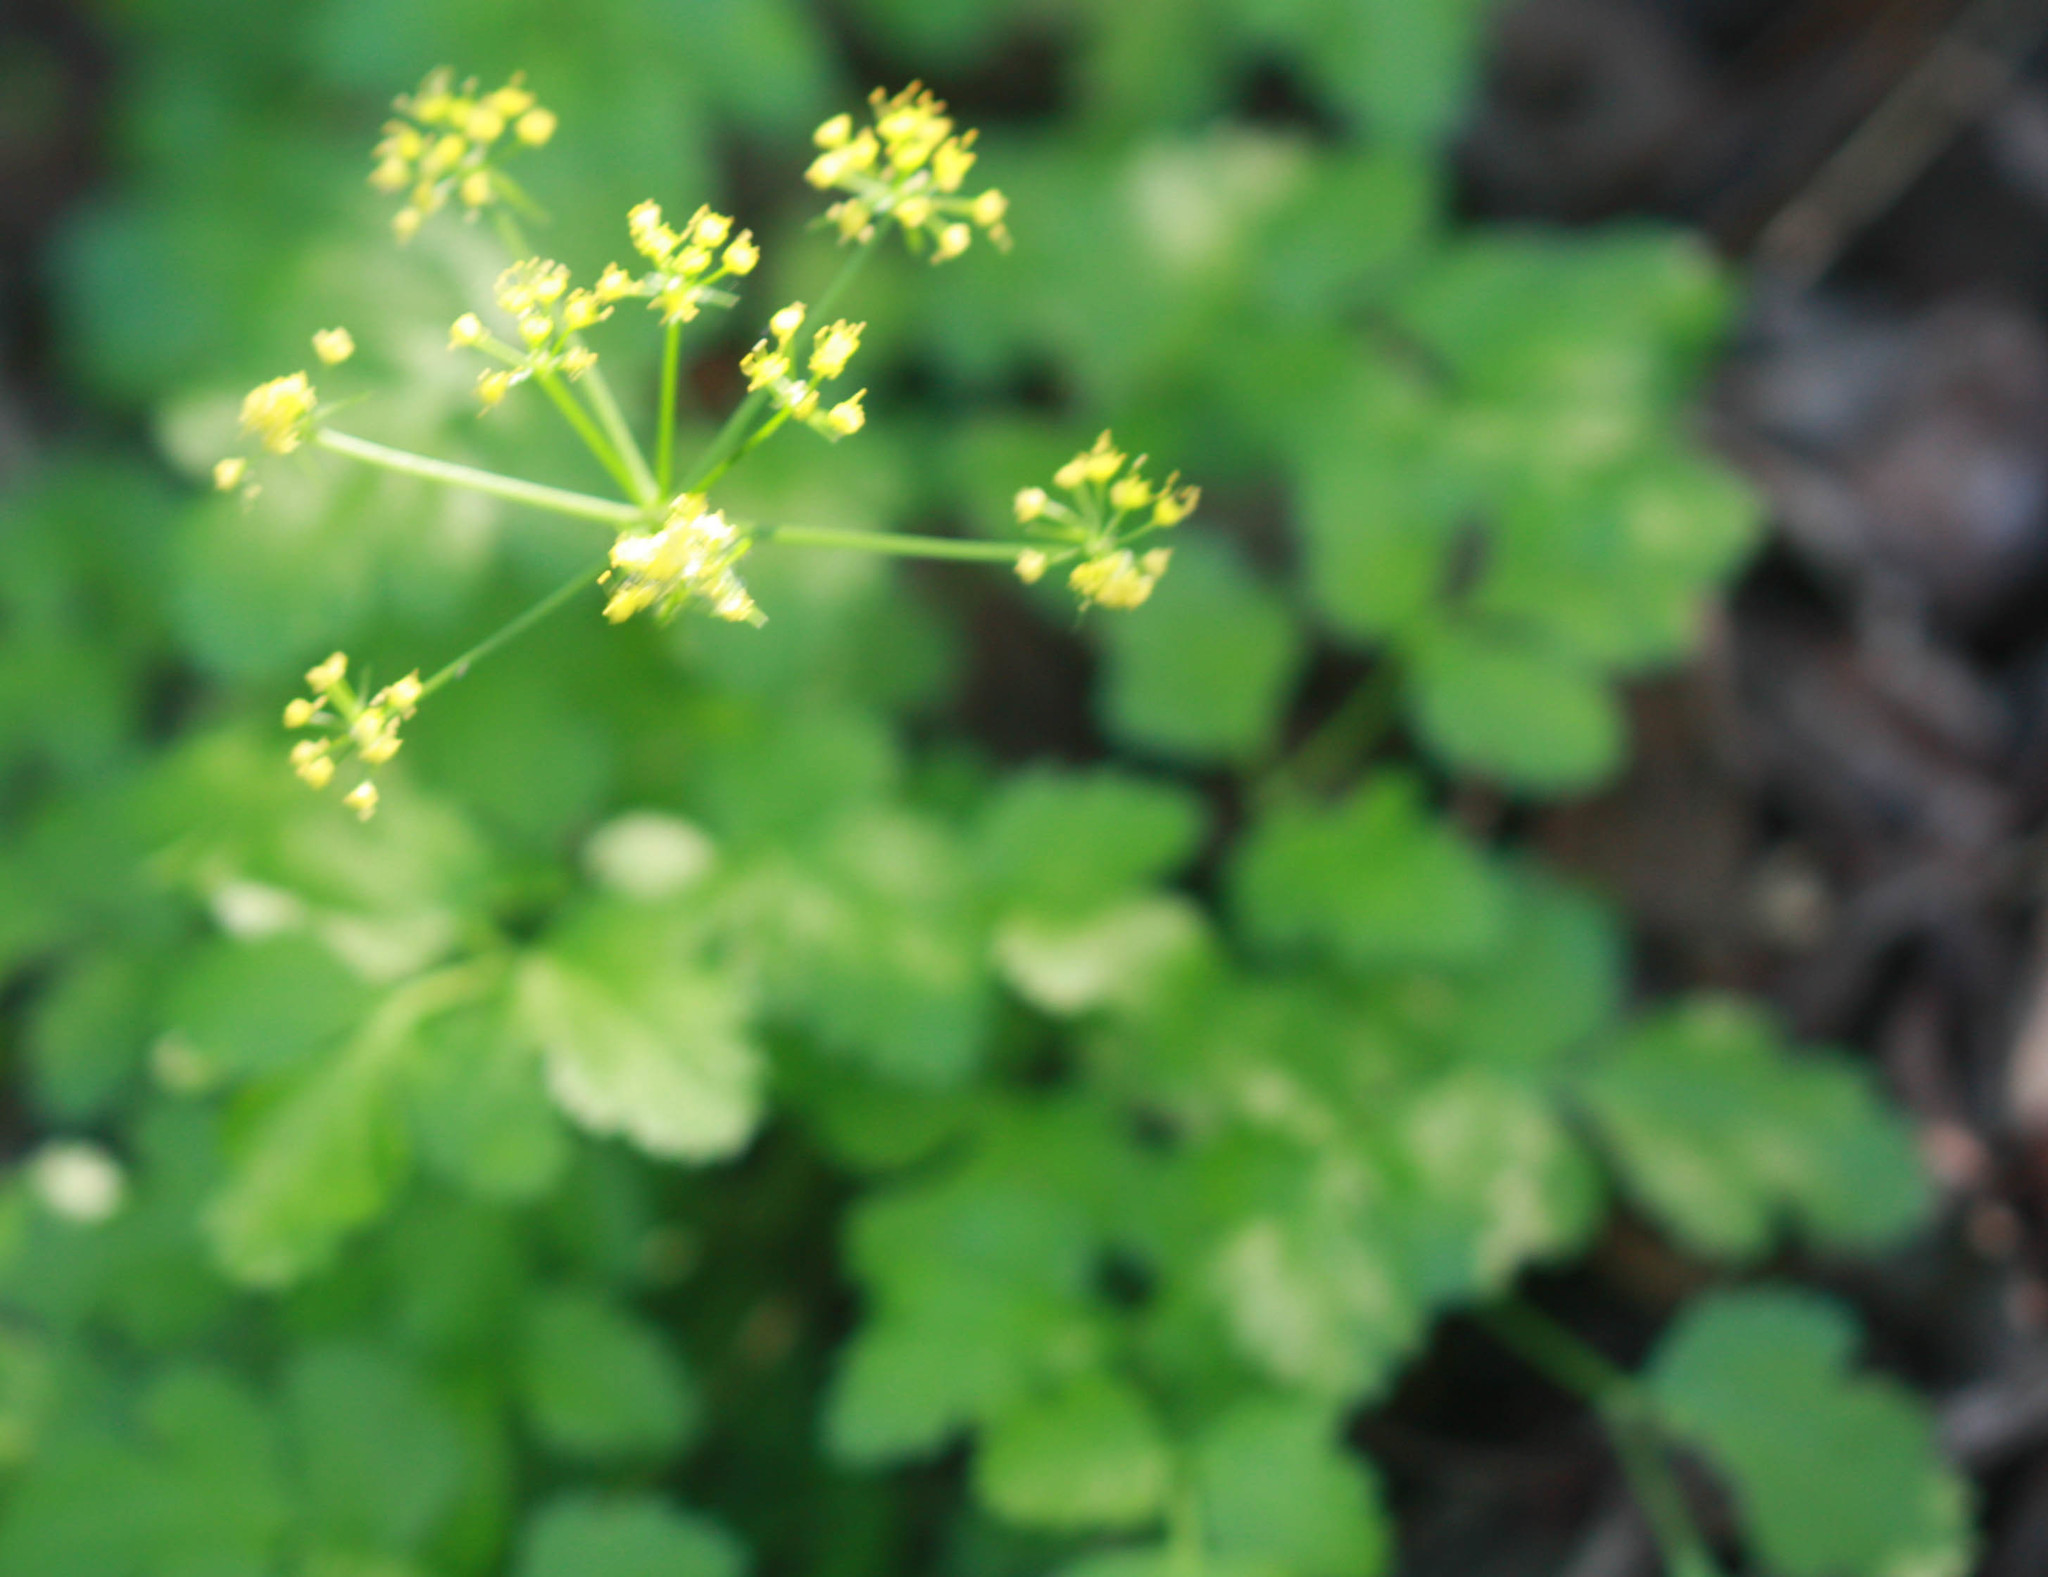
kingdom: Plantae
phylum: Tracheophyta
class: Magnoliopsida
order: Apiales
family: Apiaceae
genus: Tauschia
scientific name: Tauschia kelloggii
